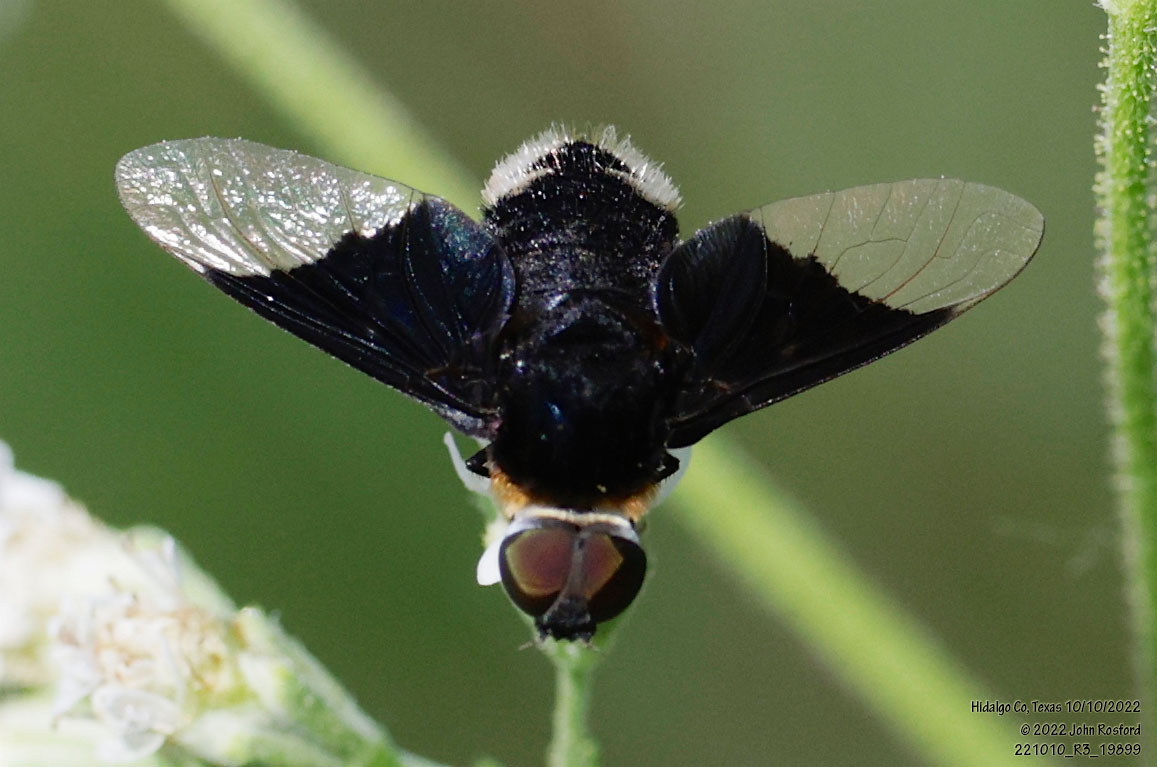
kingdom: Animalia
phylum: Arthropoda
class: Insecta
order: Diptera
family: Bombyliidae
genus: Ins
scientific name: Ins celeris
